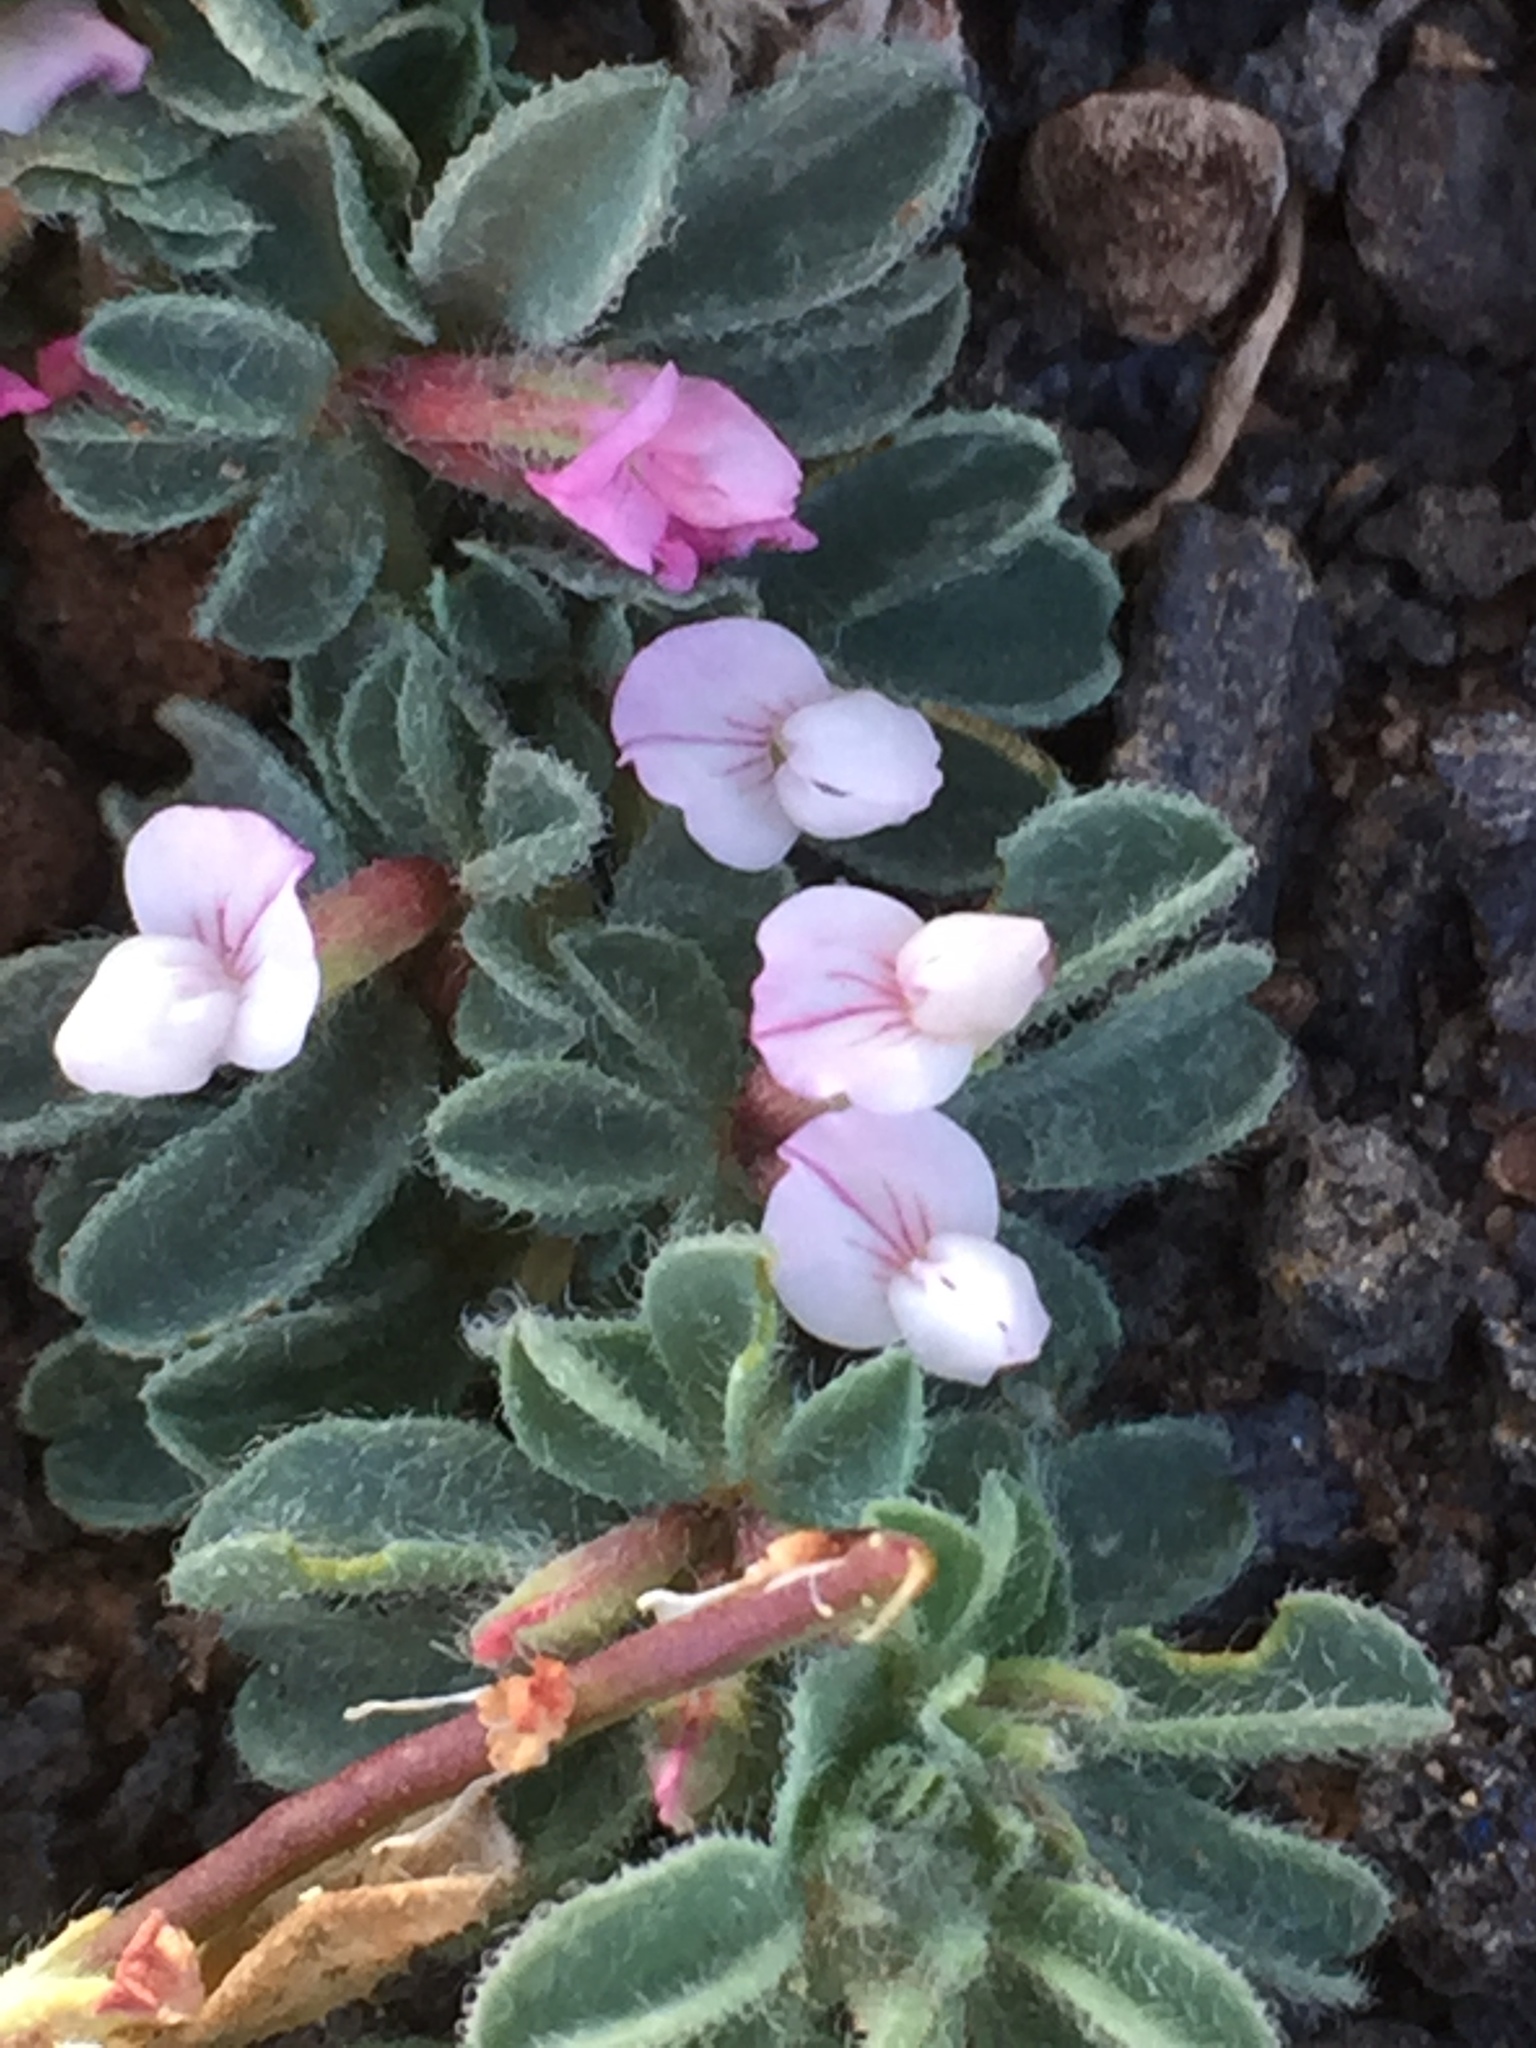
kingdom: Plantae
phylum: Tracheophyta
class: Magnoliopsida
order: Fabales
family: Fabaceae
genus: Lotus
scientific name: Lotus glinoides
